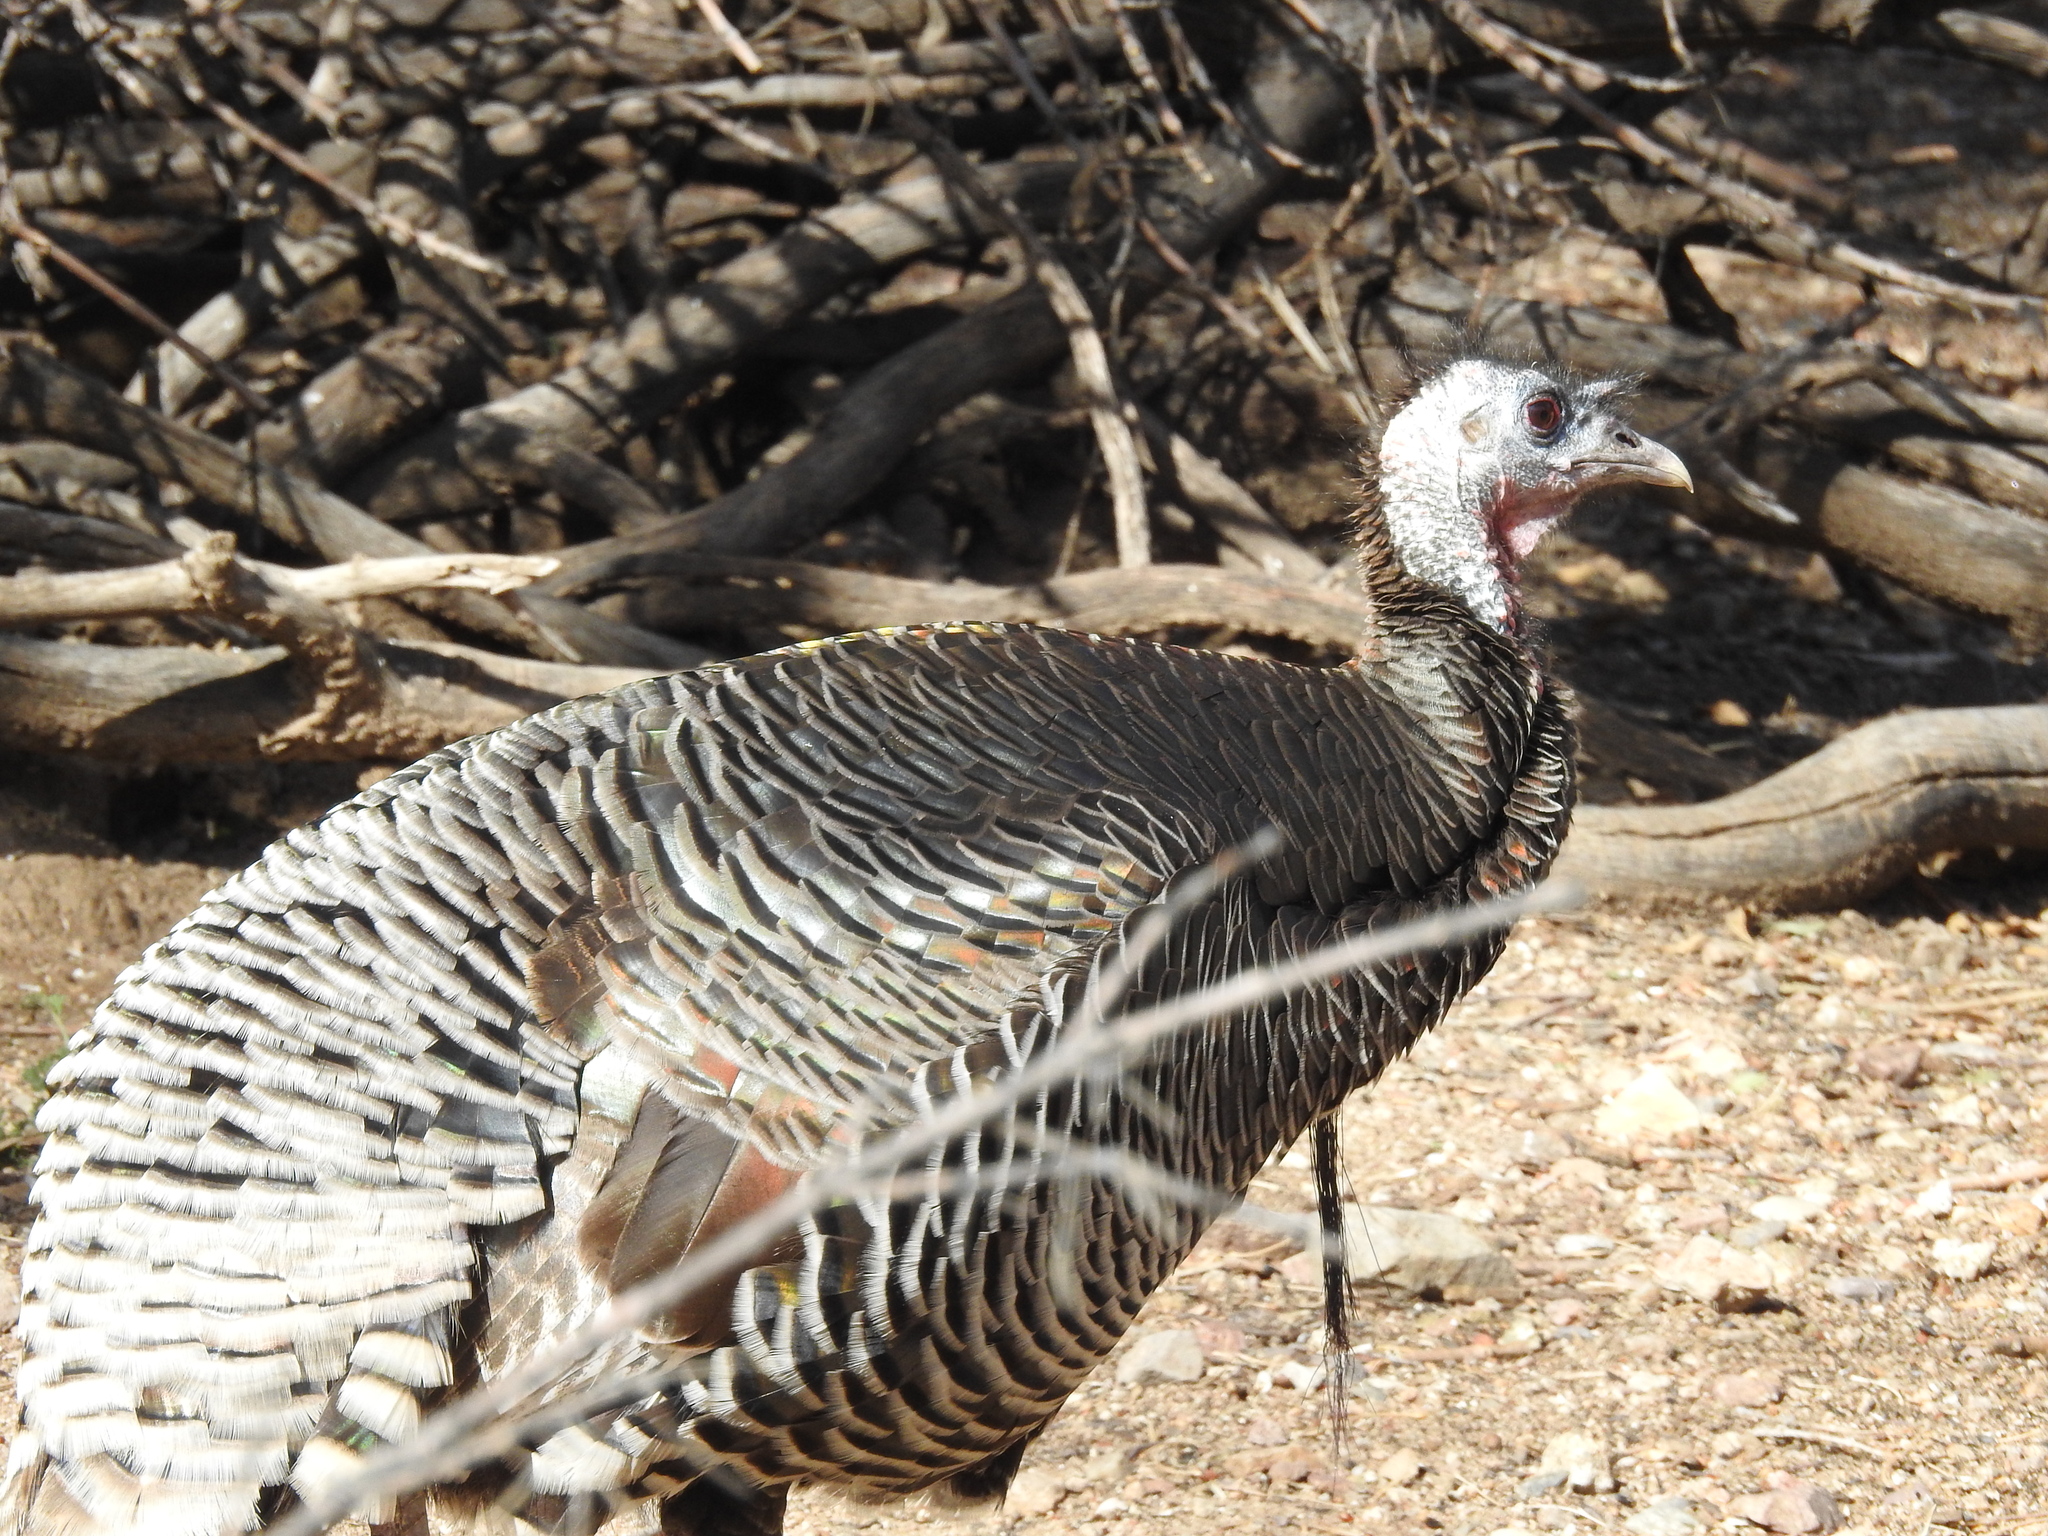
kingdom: Animalia
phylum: Chordata
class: Aves
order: Galliformes
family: Phasianidae
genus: Meleagris
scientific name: Meleagris gallopavo
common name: Wild turkey
